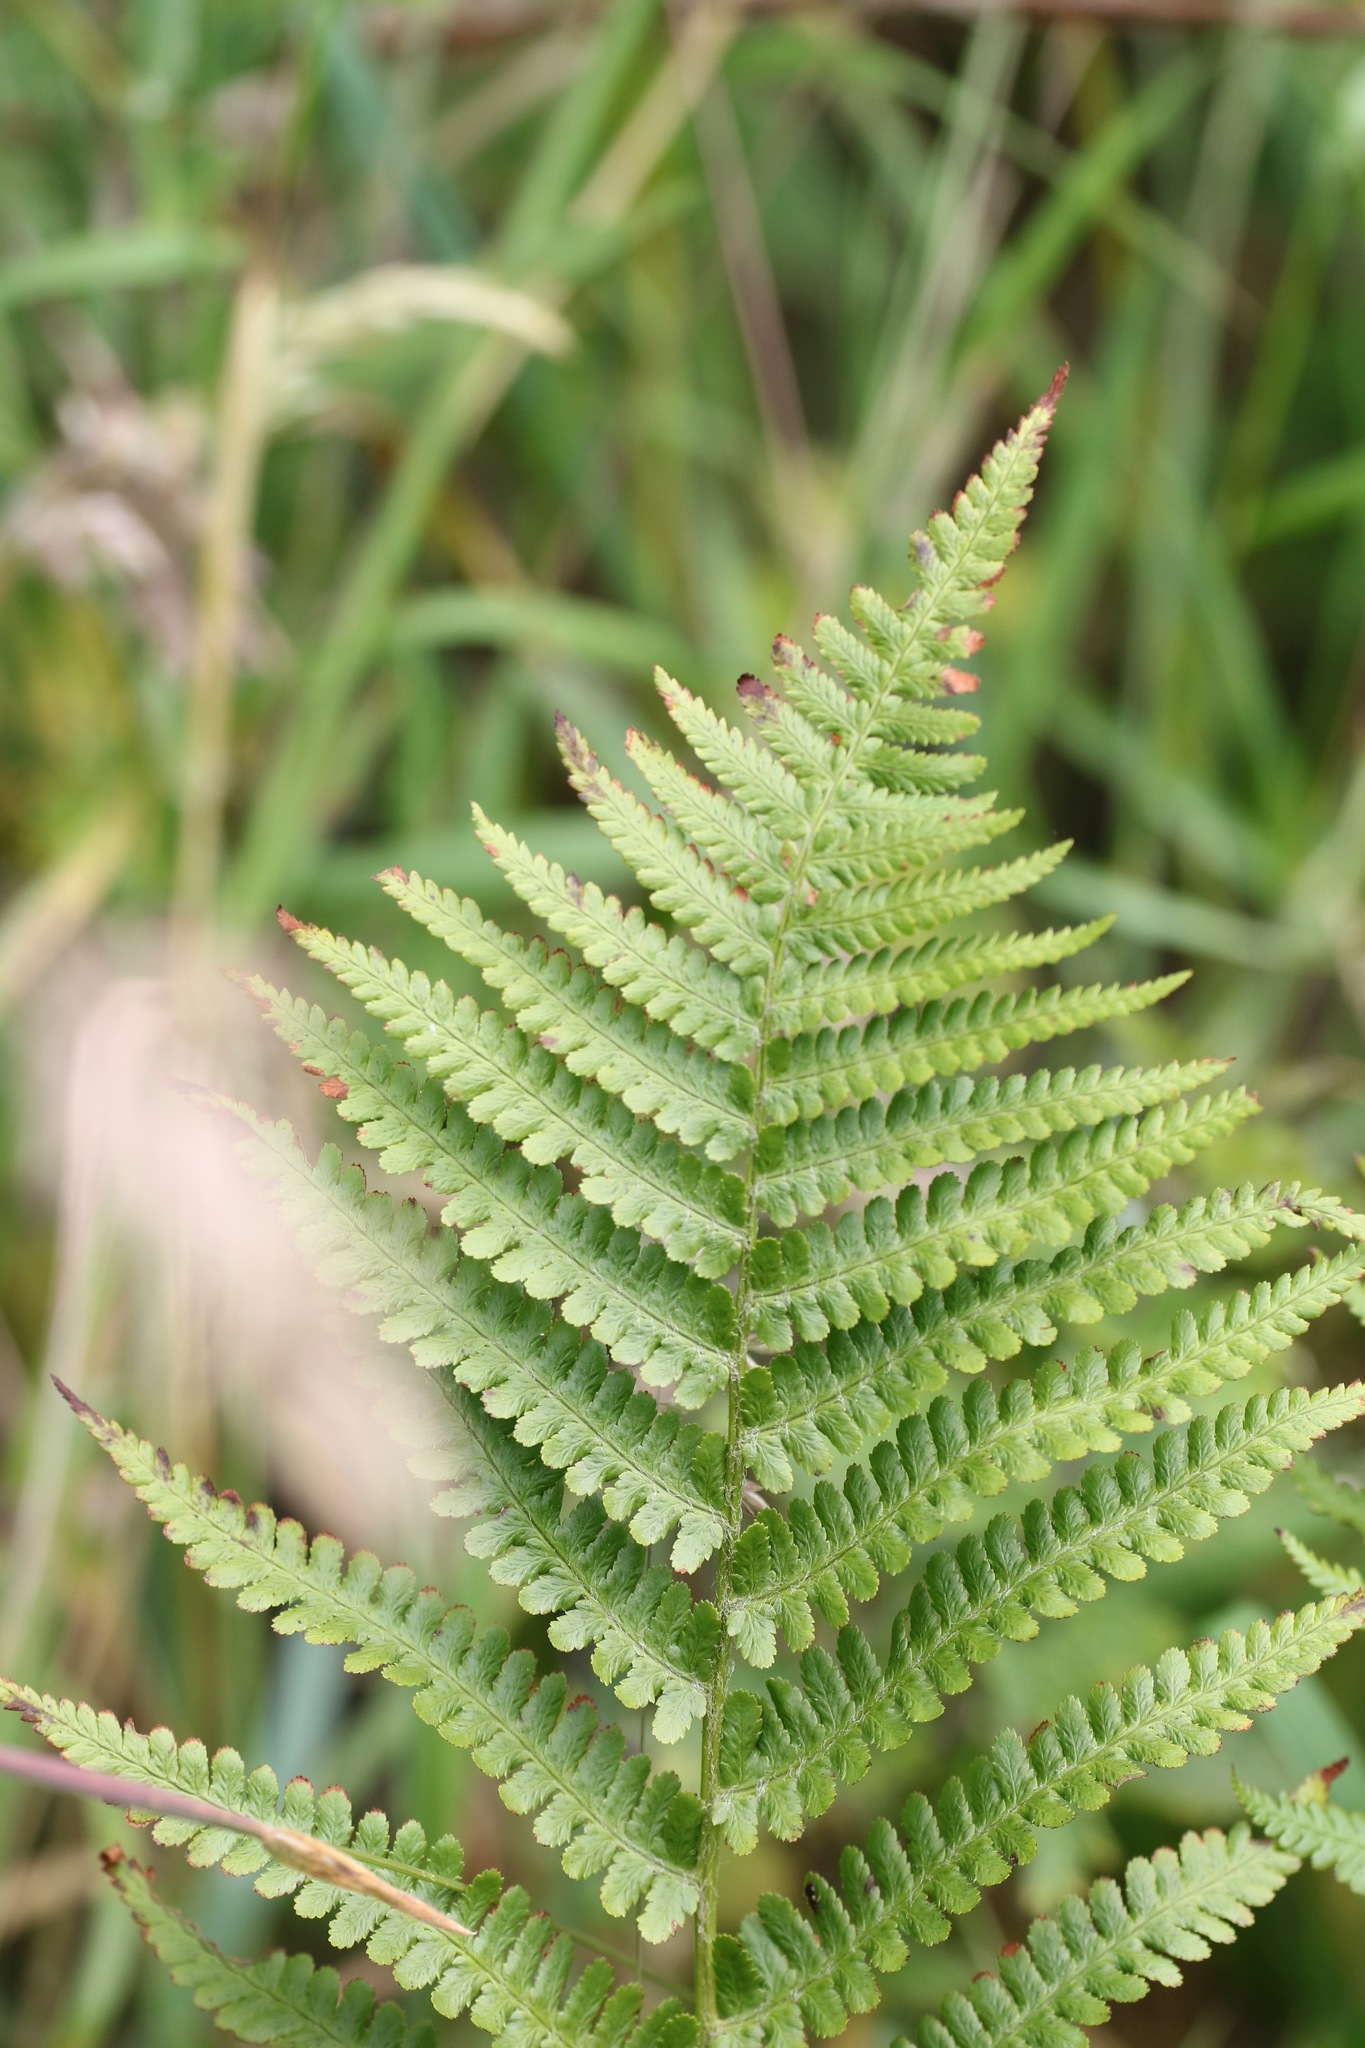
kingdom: Plantae
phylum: Tracheophyta
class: Polypodiopsida
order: Polypodiales
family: Dryopteridaceae
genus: Dryopteris
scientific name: Dryopteris filix-mas
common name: Male fern
